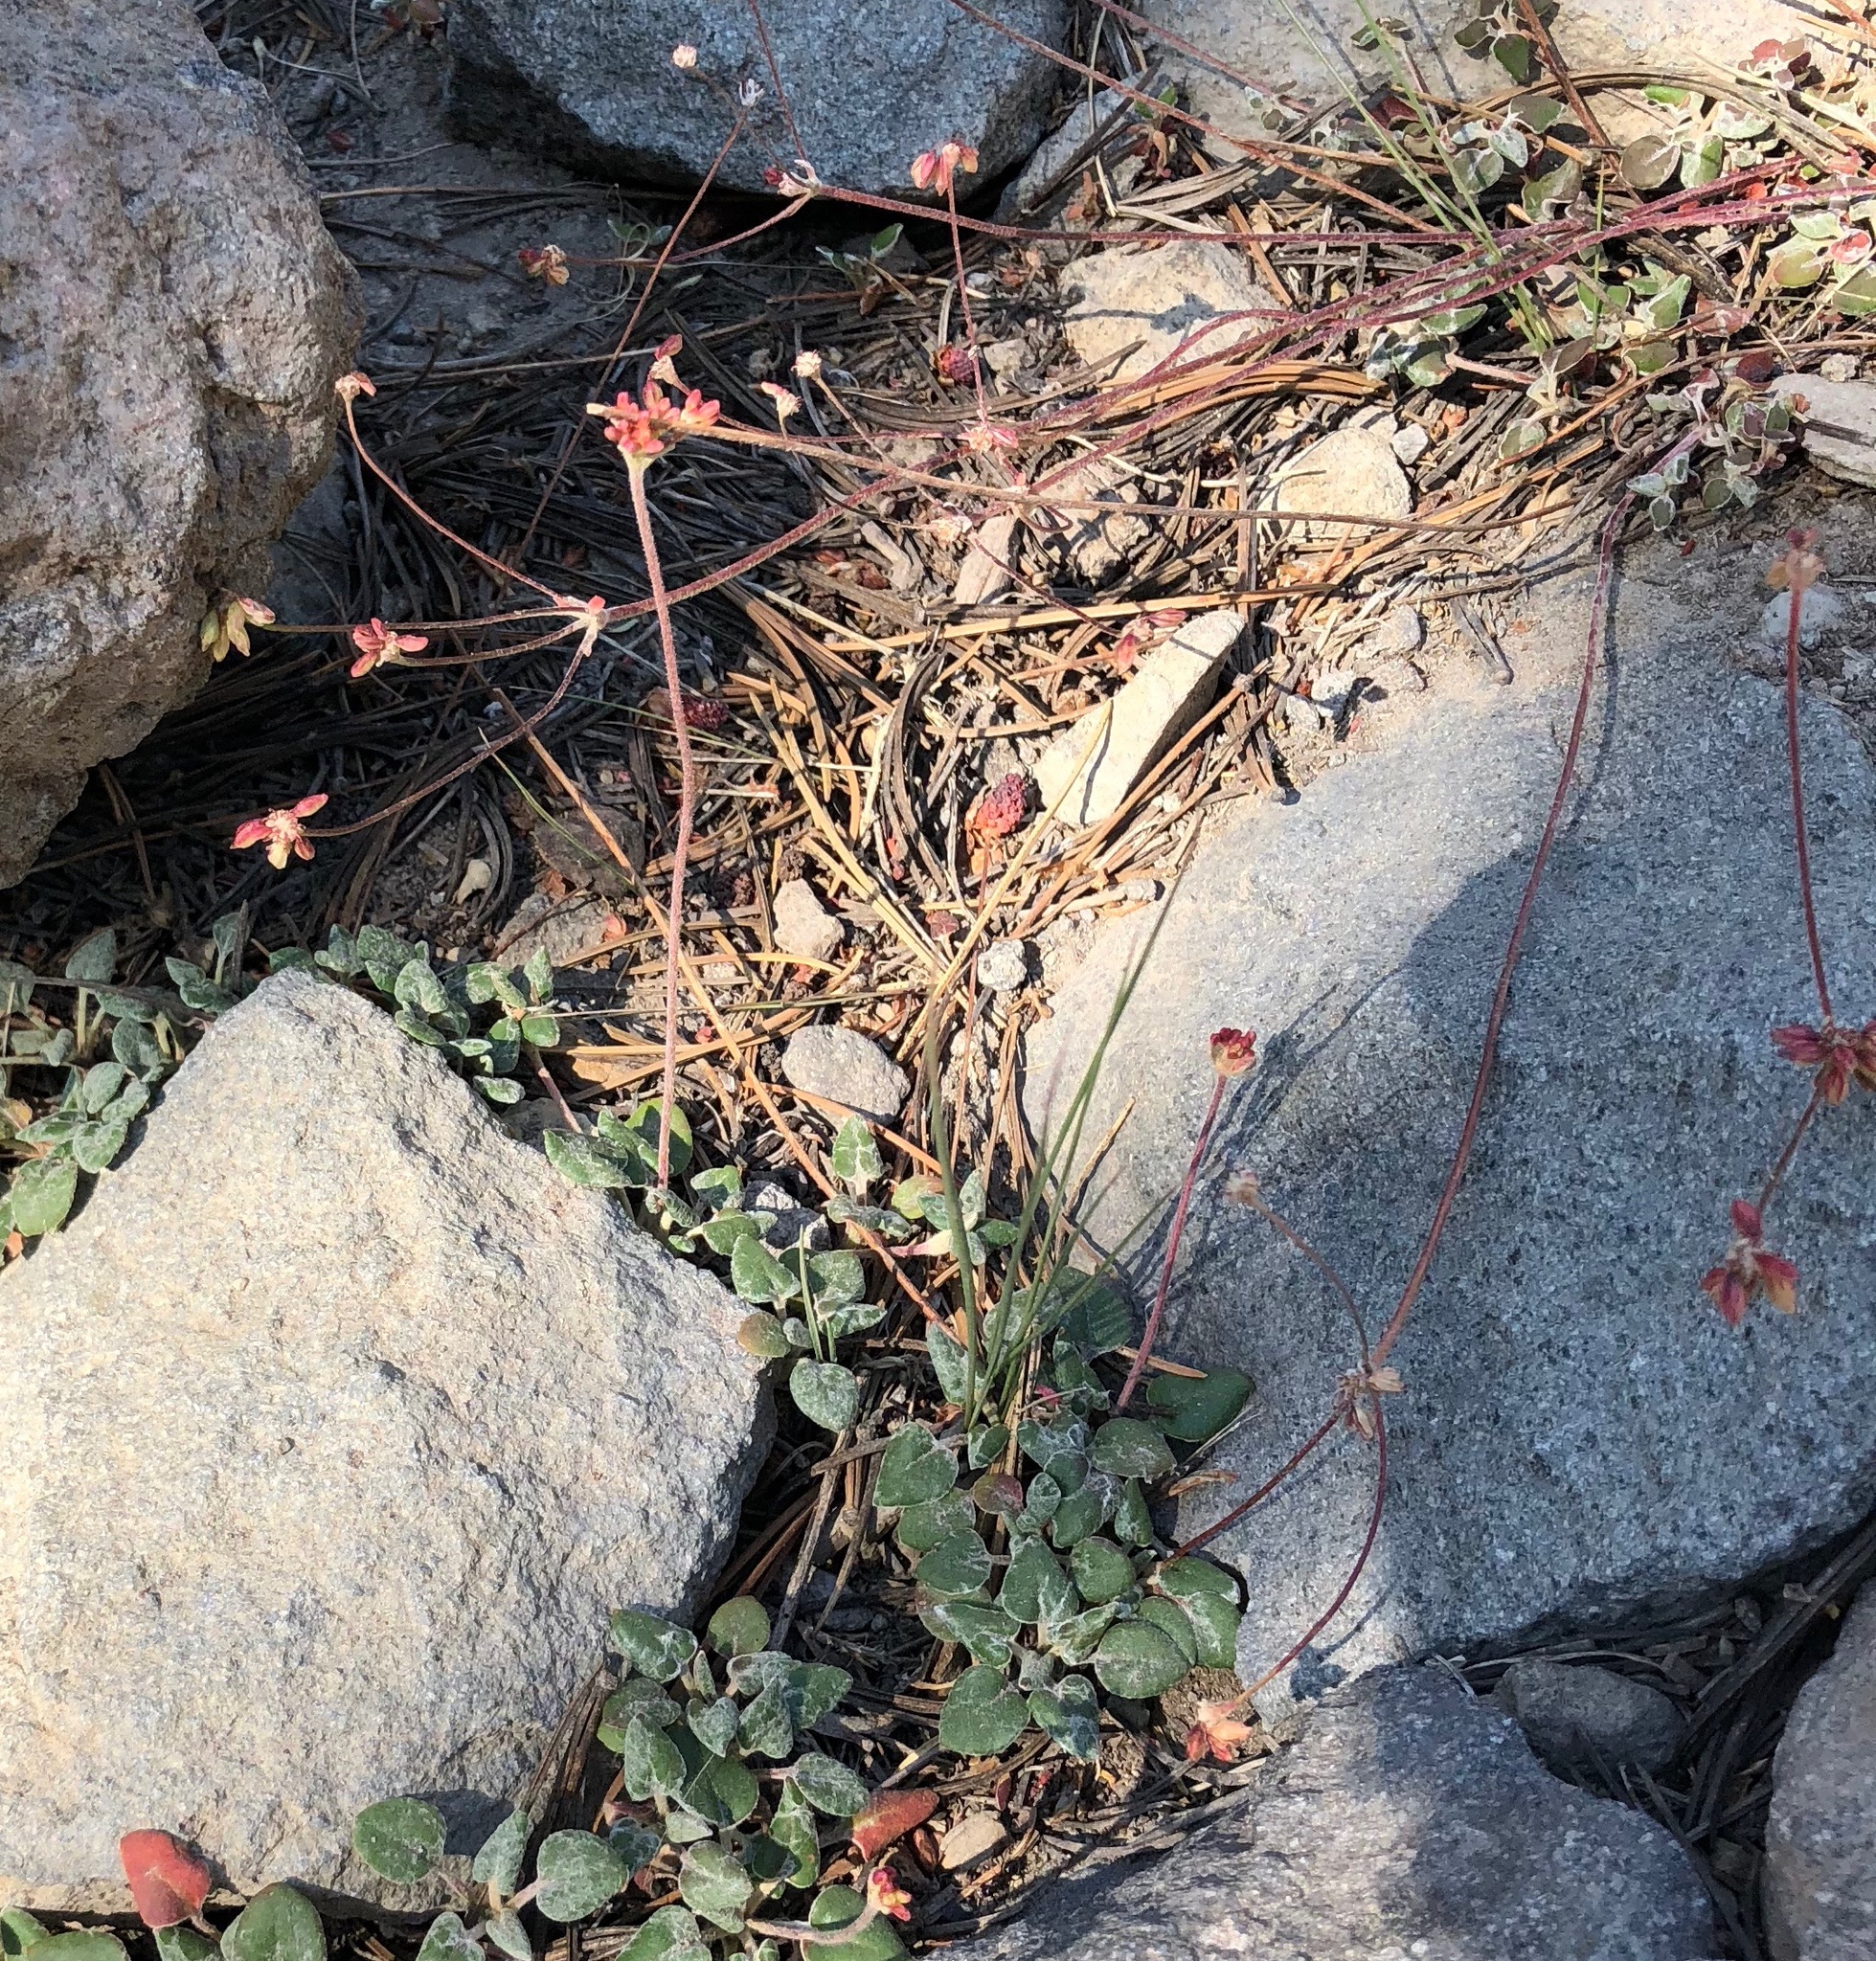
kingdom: Plantae
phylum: Tracheophyta
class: Magnoliopsida
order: Caryophyllales
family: Polygonaceae
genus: Eriogonum
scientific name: Eriogonum marifolium
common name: Marum-leaf wild buckwheat
